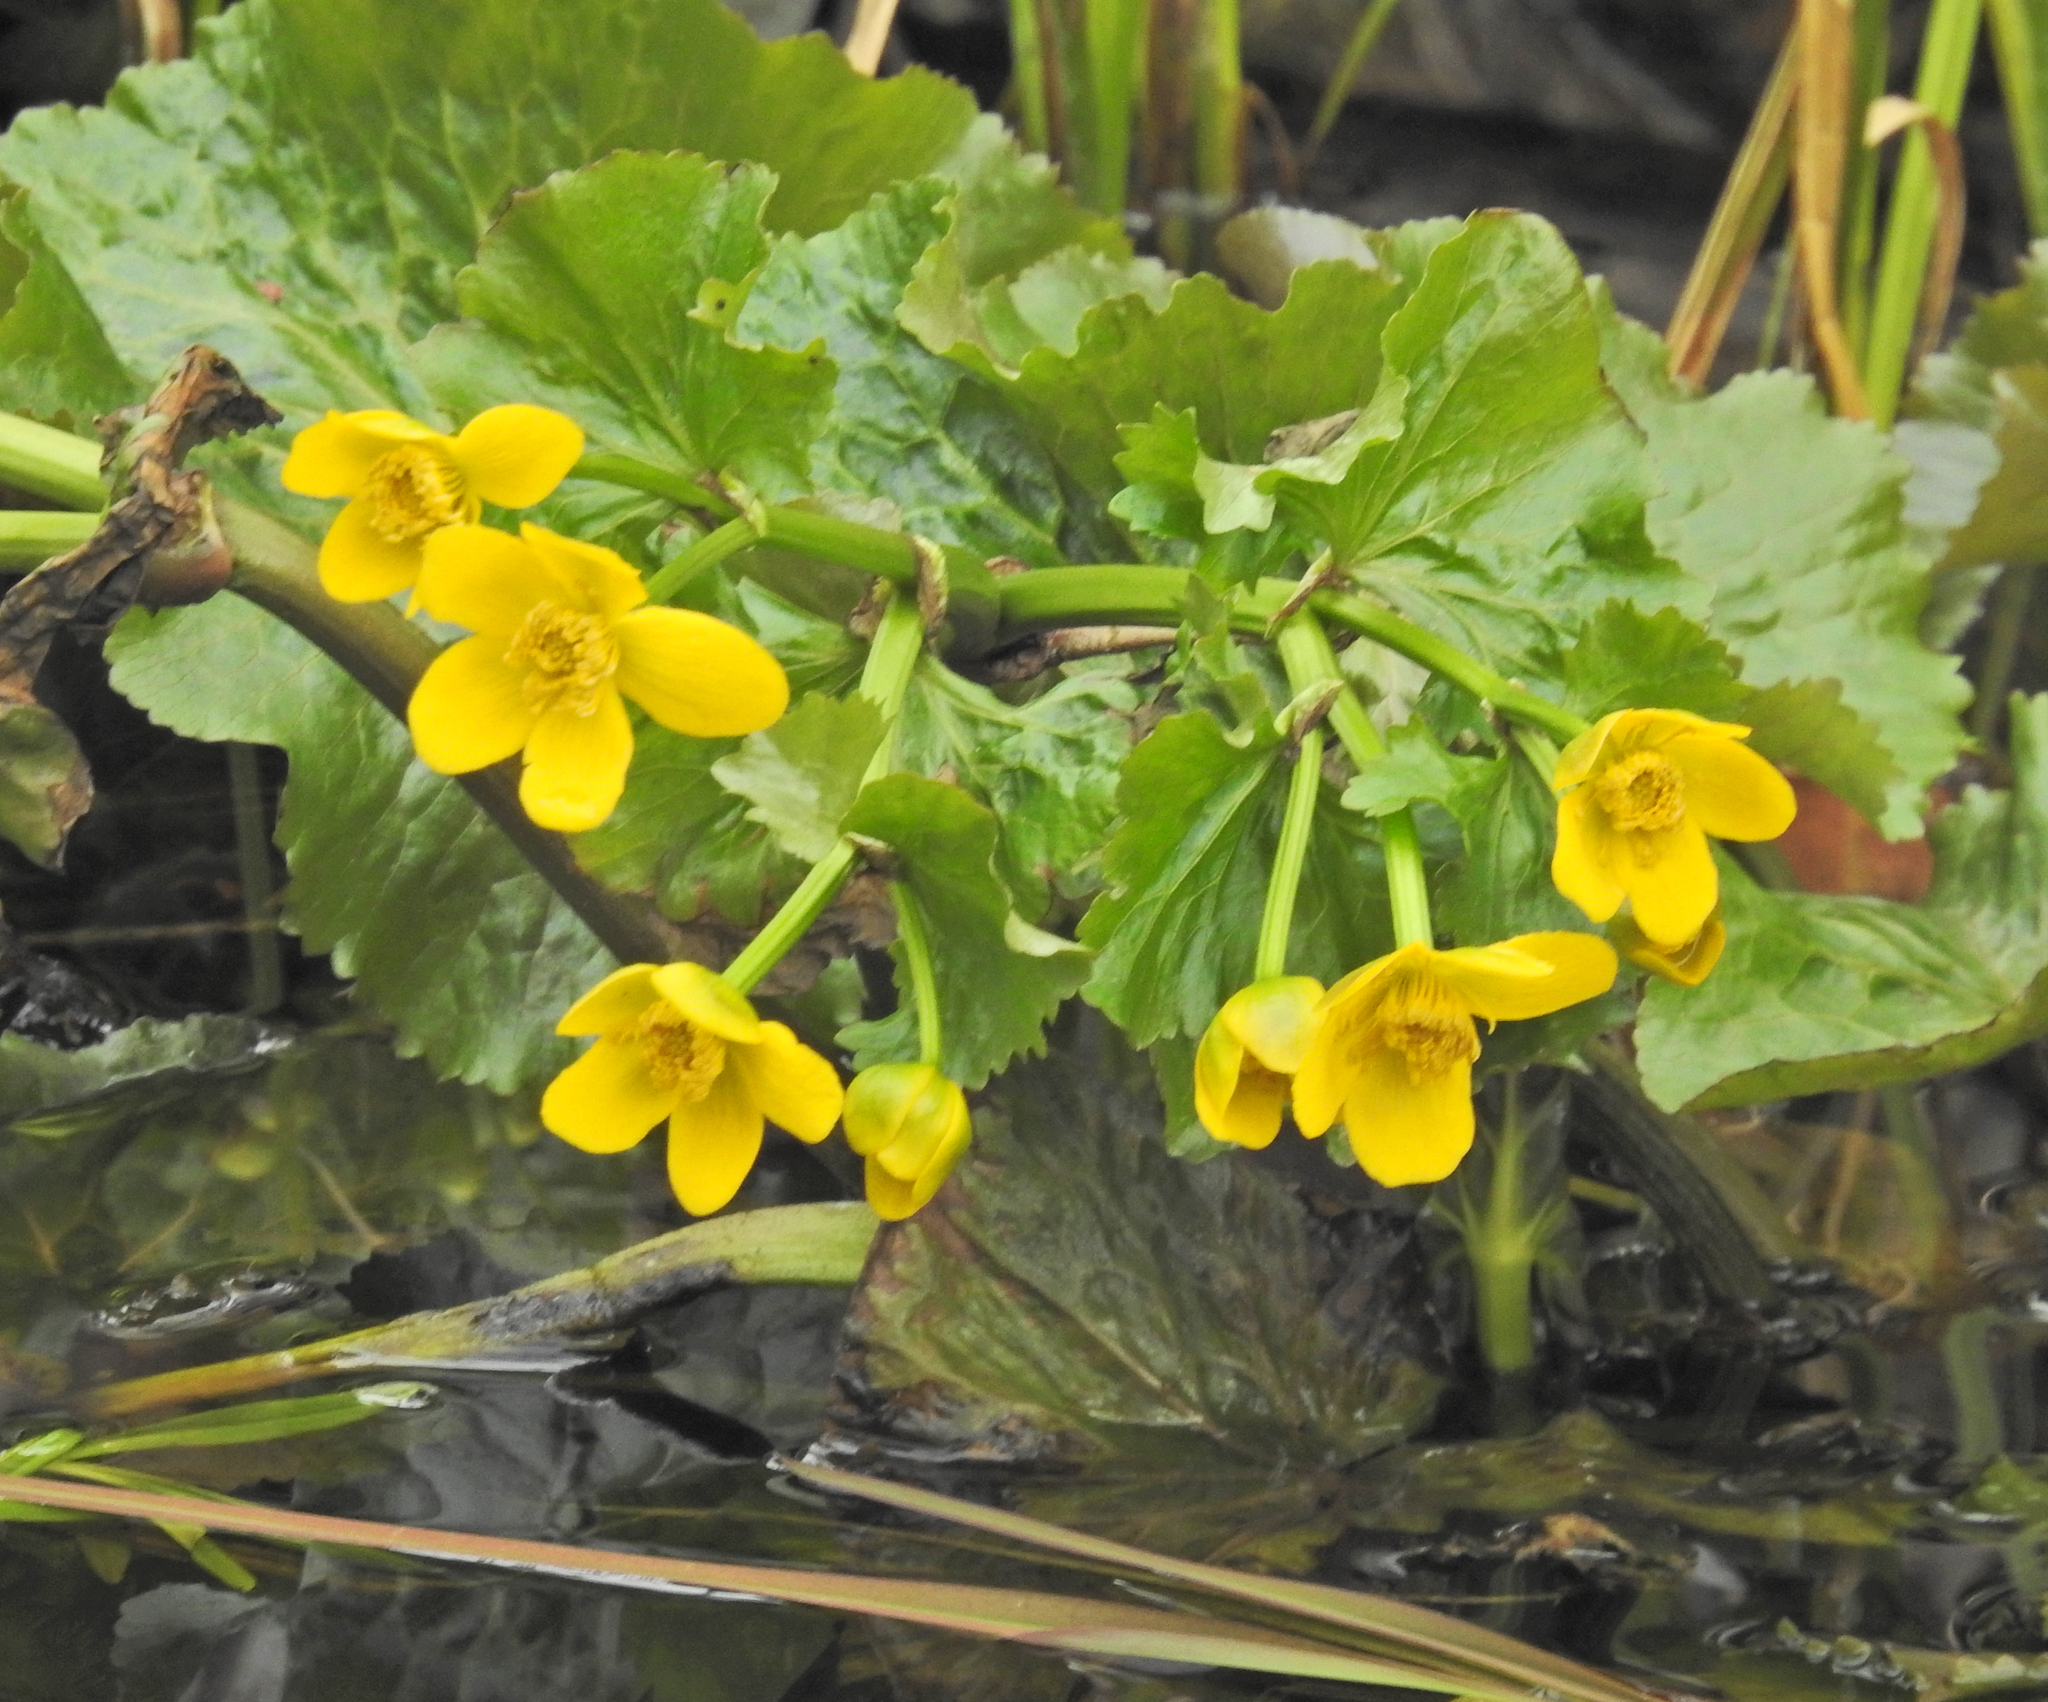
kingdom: Plantae
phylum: Tracheophyta
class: Magnoliopsida
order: Ranunculales
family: Ranunculaceae
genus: Caltha
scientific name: Caltha palustris
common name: Marsh marigold
